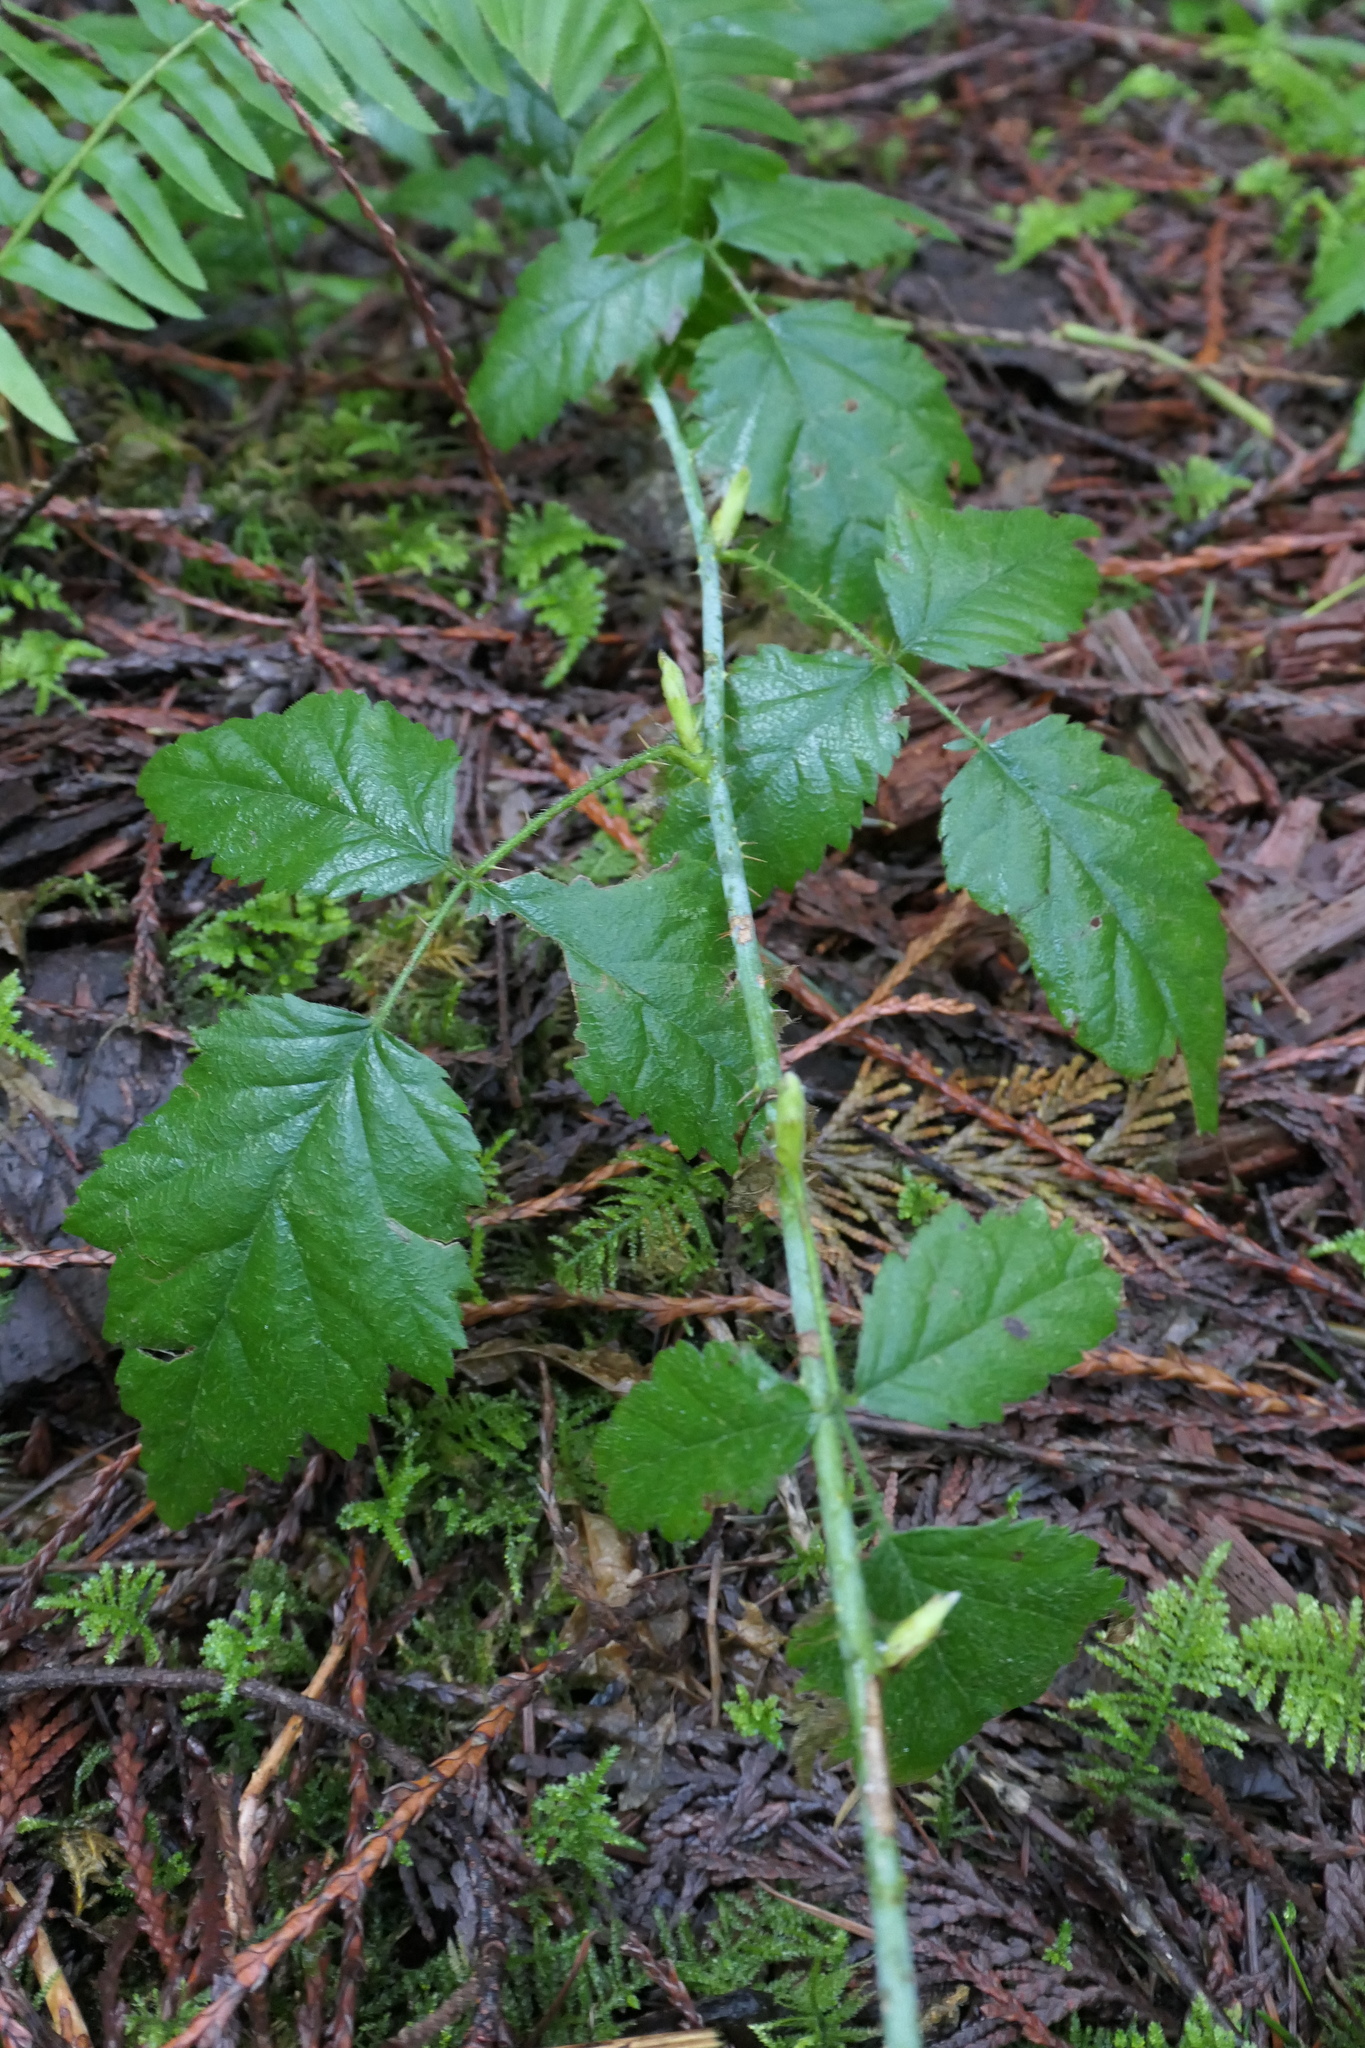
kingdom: Plantae
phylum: Tracheophyta
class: Magnoliopsida
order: Rosales
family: Rosaceae
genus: Rubus
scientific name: Rubus ursinus
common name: Pacific blackberry
